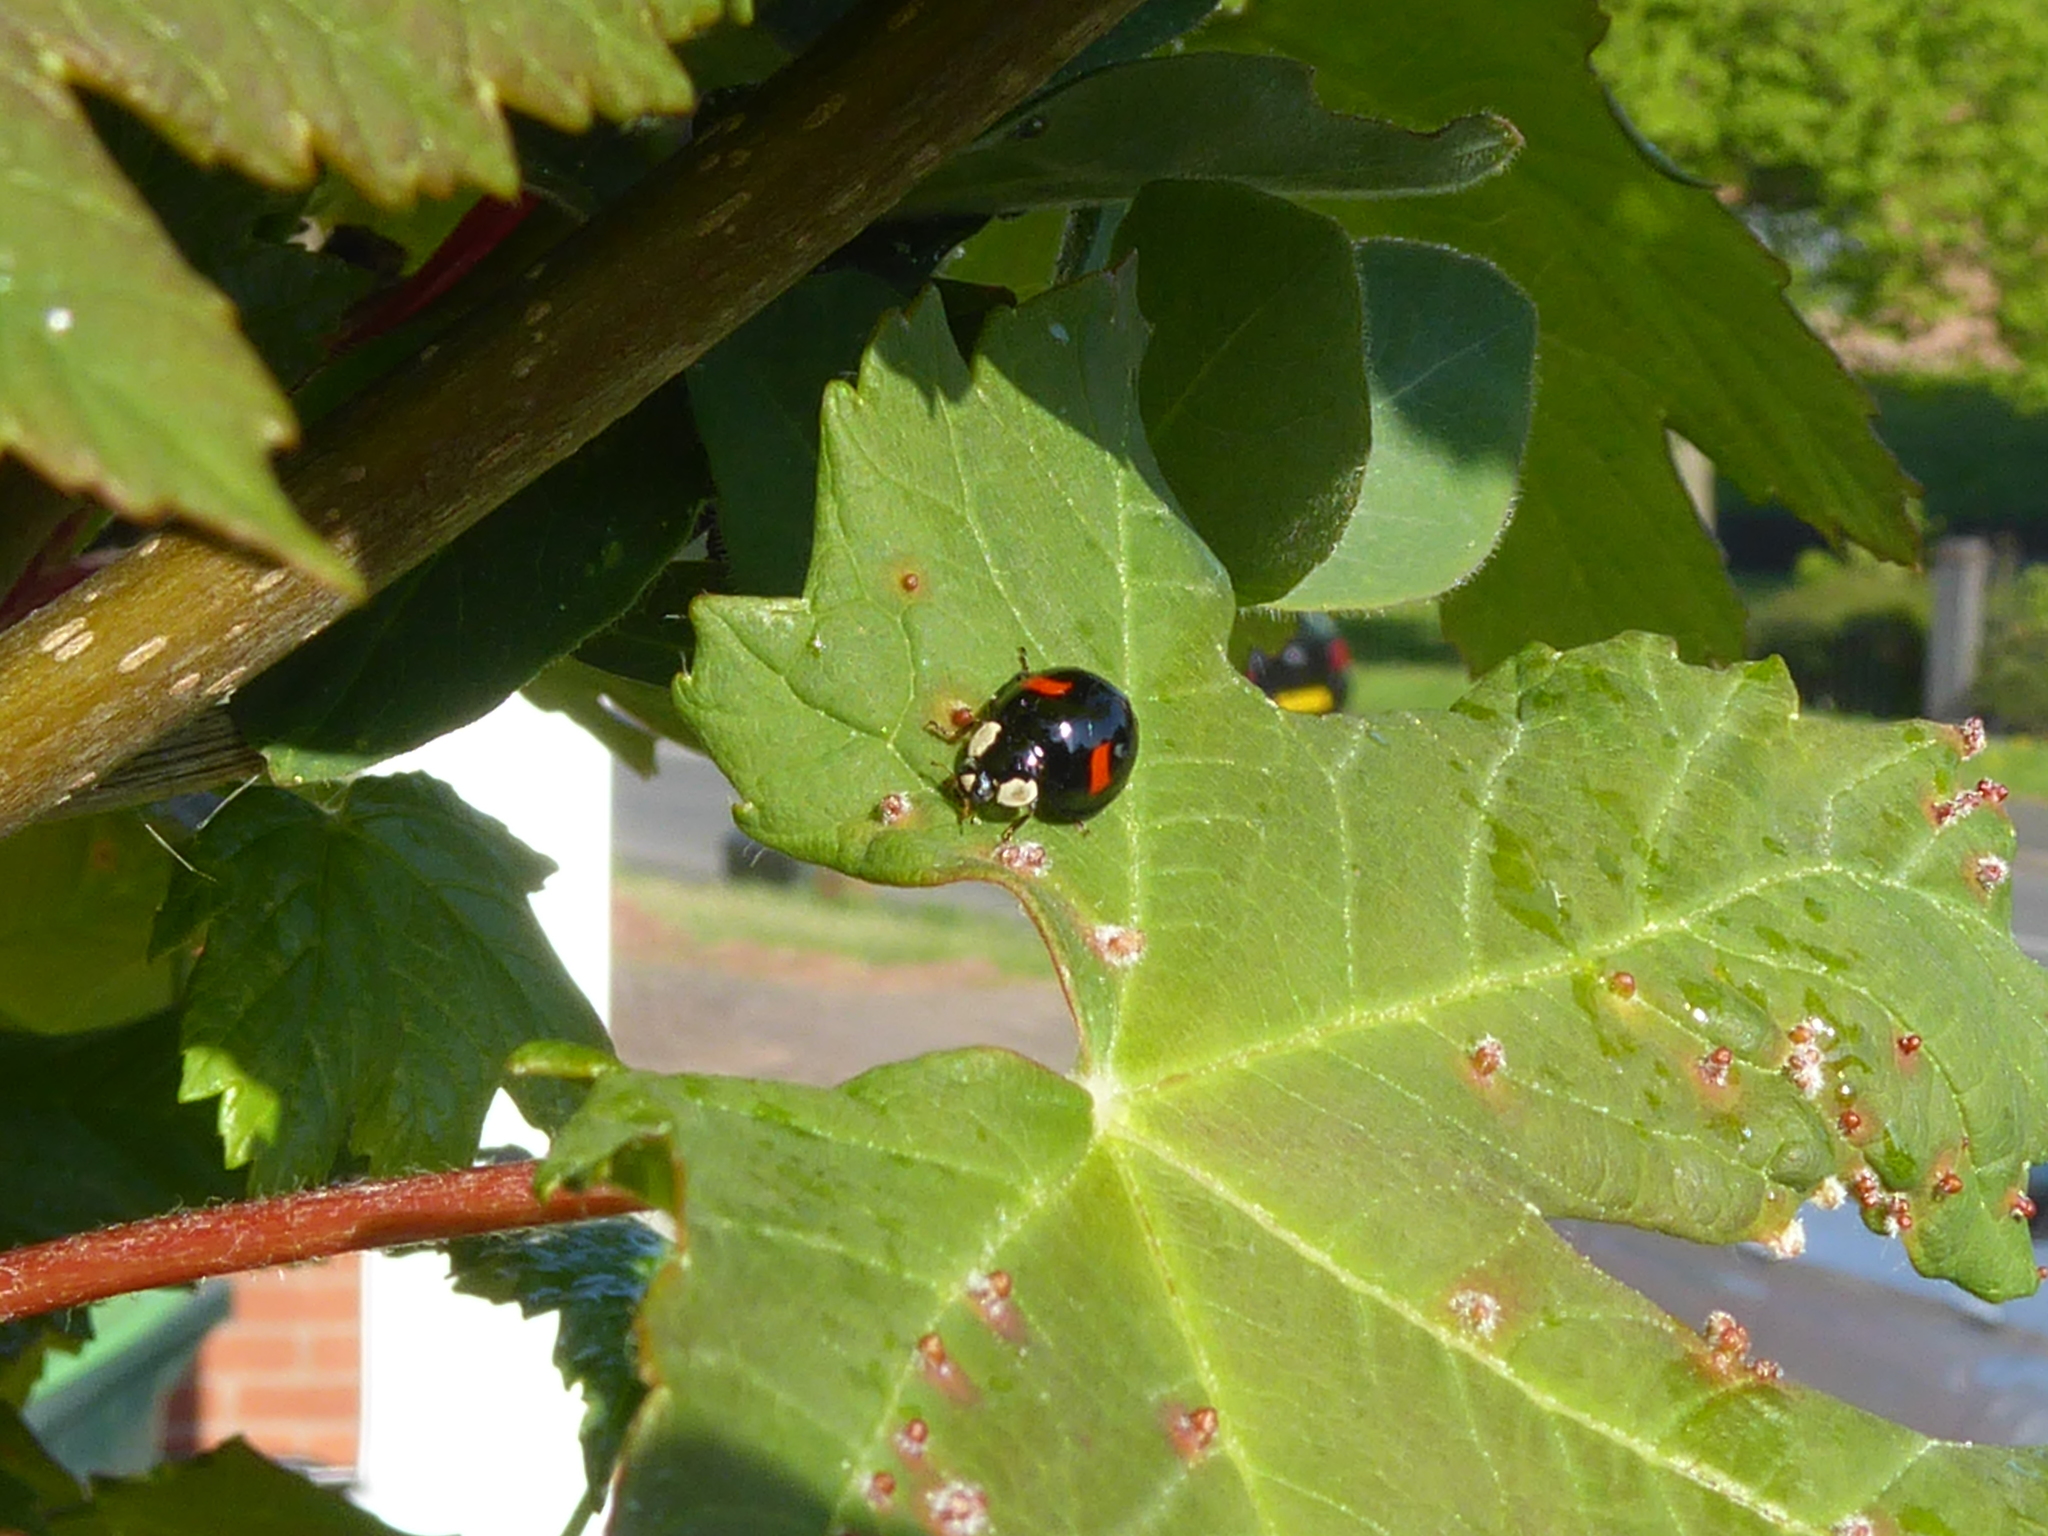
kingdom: Animalia
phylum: Arthropoda
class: Insecta
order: Coleoptera
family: Coccinellidae
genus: Harmonia
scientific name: Harmonia axyridis
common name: Harlequin ladybird
